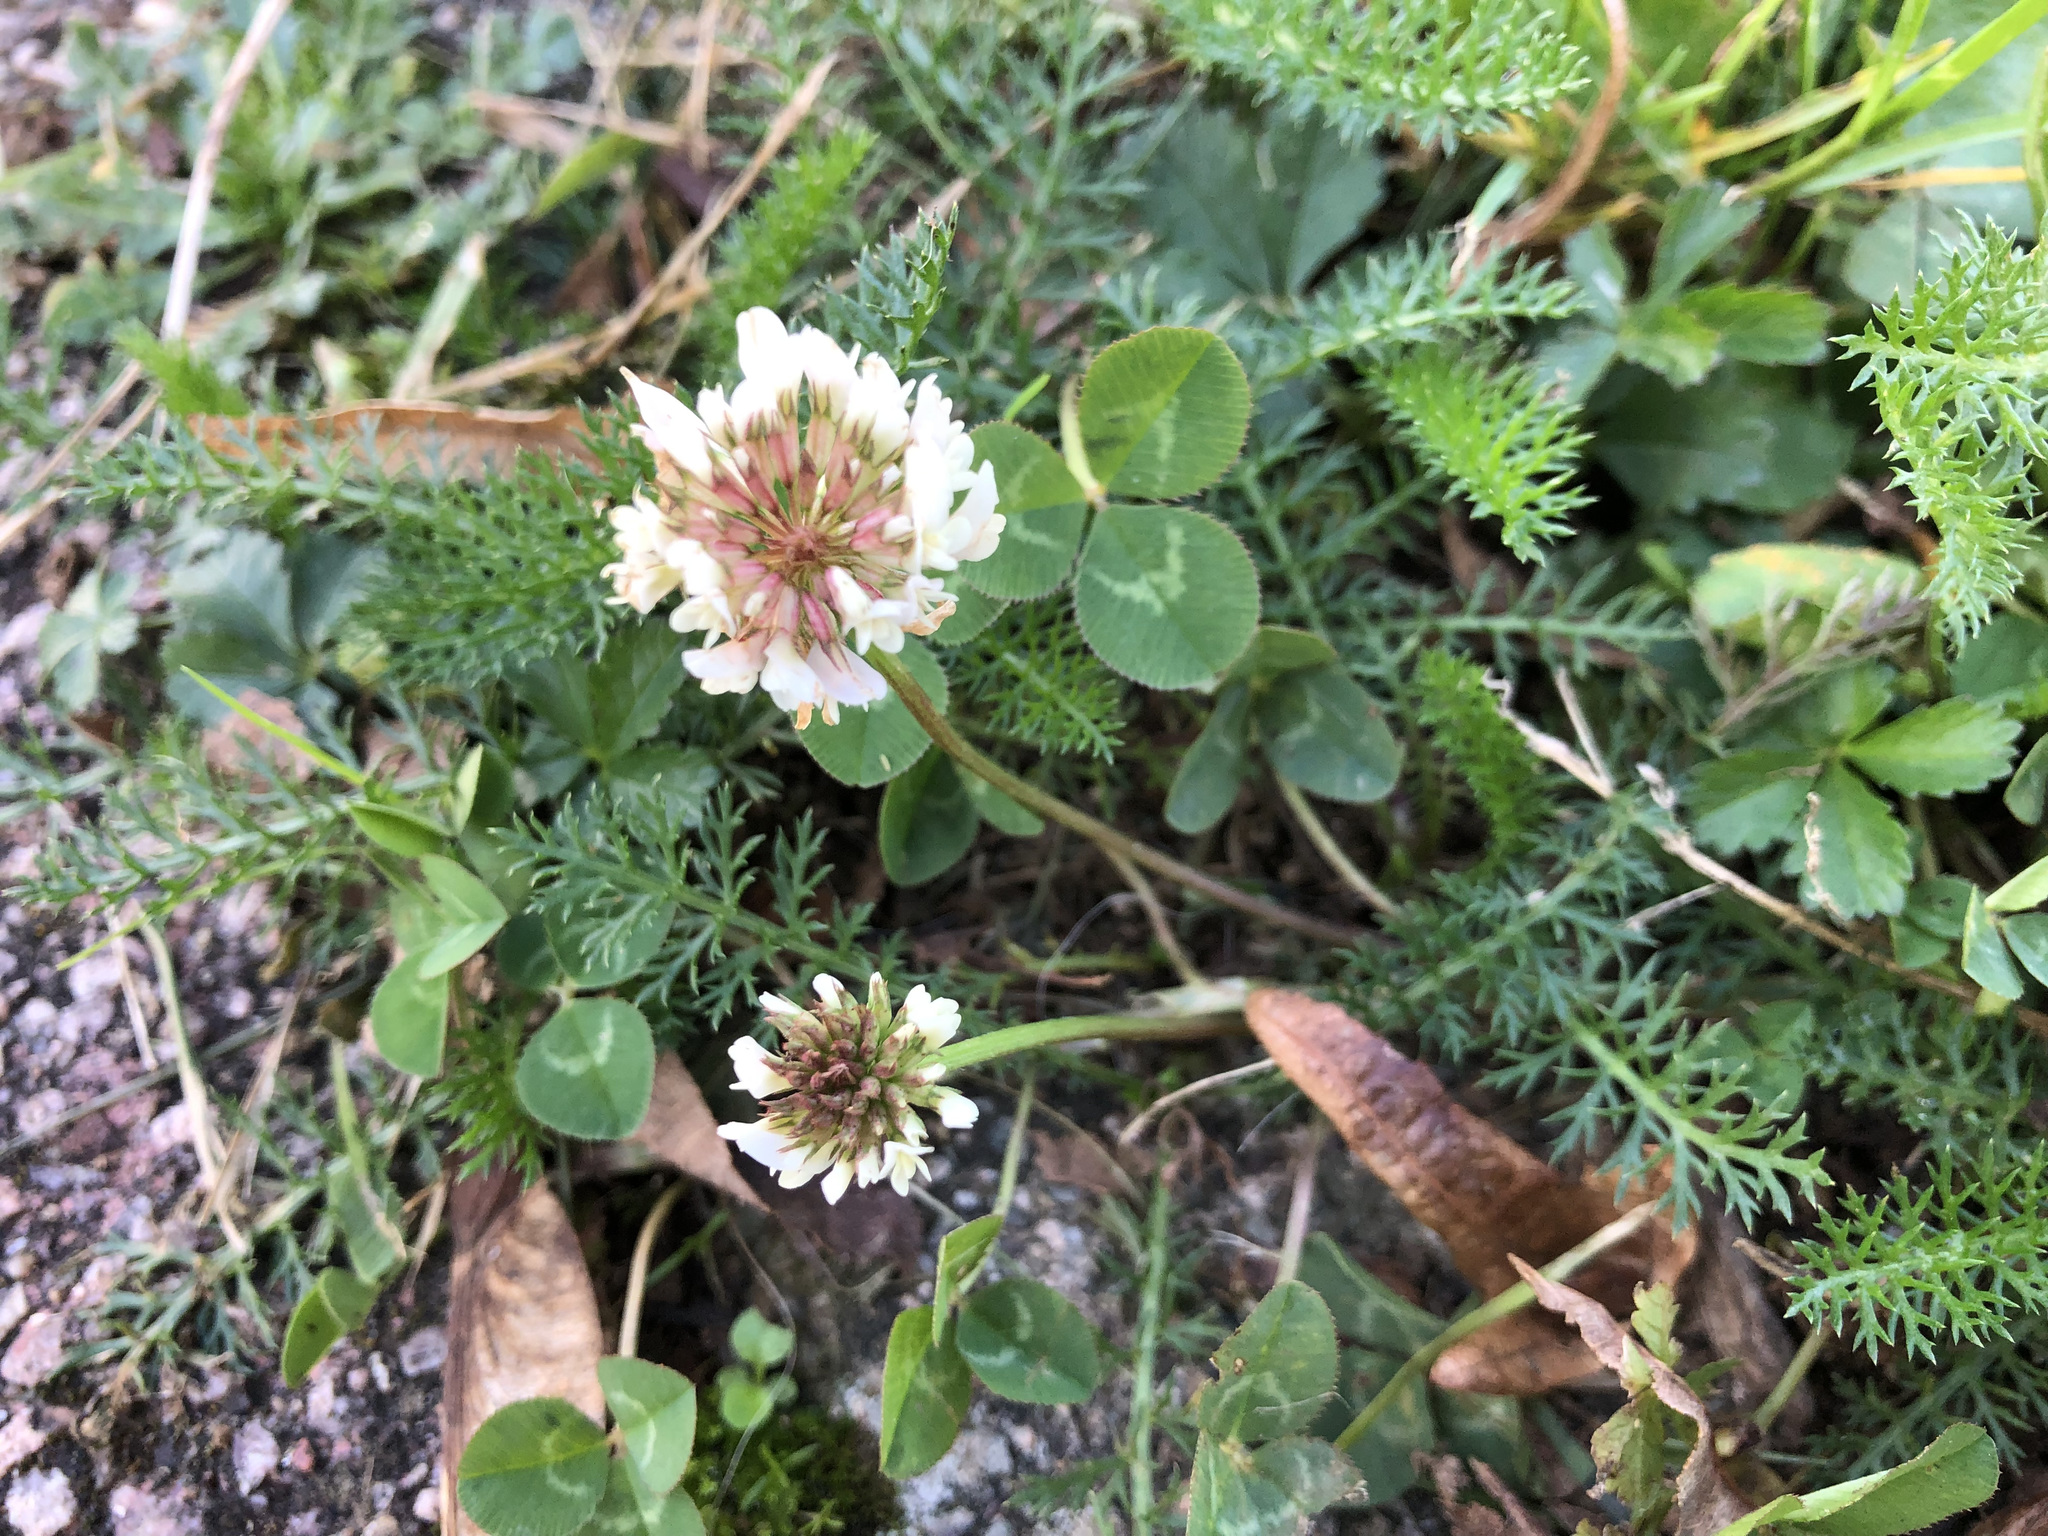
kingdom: Plantae
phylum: Tracheophyta
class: Magnoliopsida
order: Fabales
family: Fabaceae
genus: Trifolium
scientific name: Trifolium repens
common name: White clover
